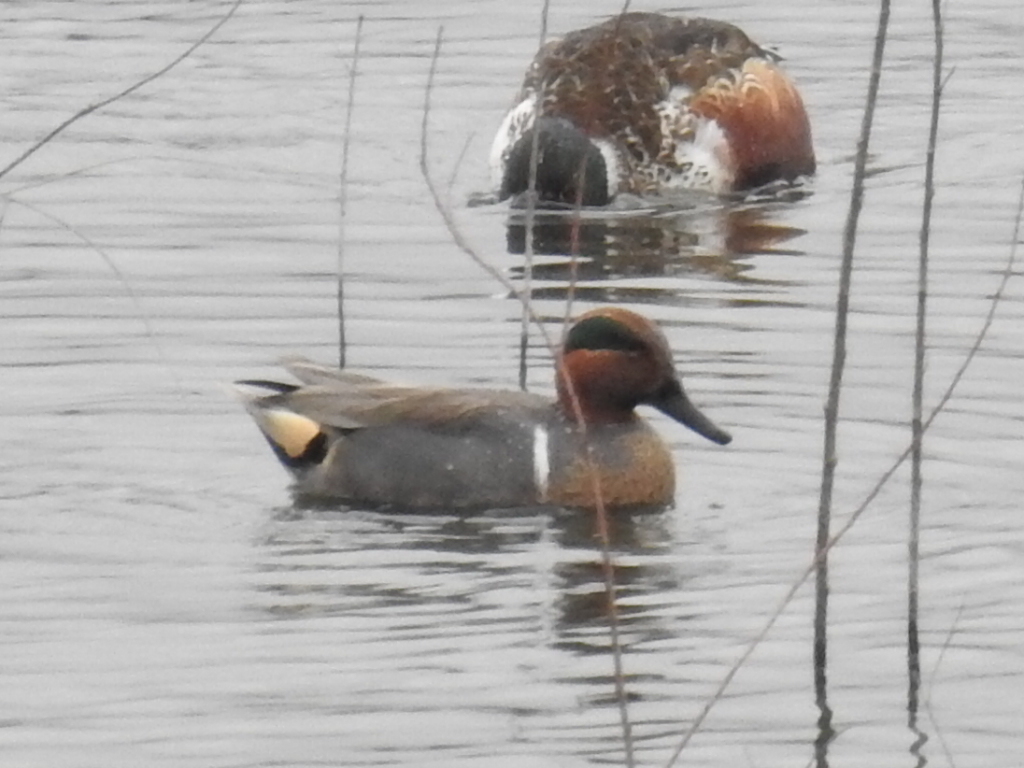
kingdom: Animalia
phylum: Chordata
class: Aves
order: Anseriformes
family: Anatidae
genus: Anas
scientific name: Anas crecca
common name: Eurasian teal
